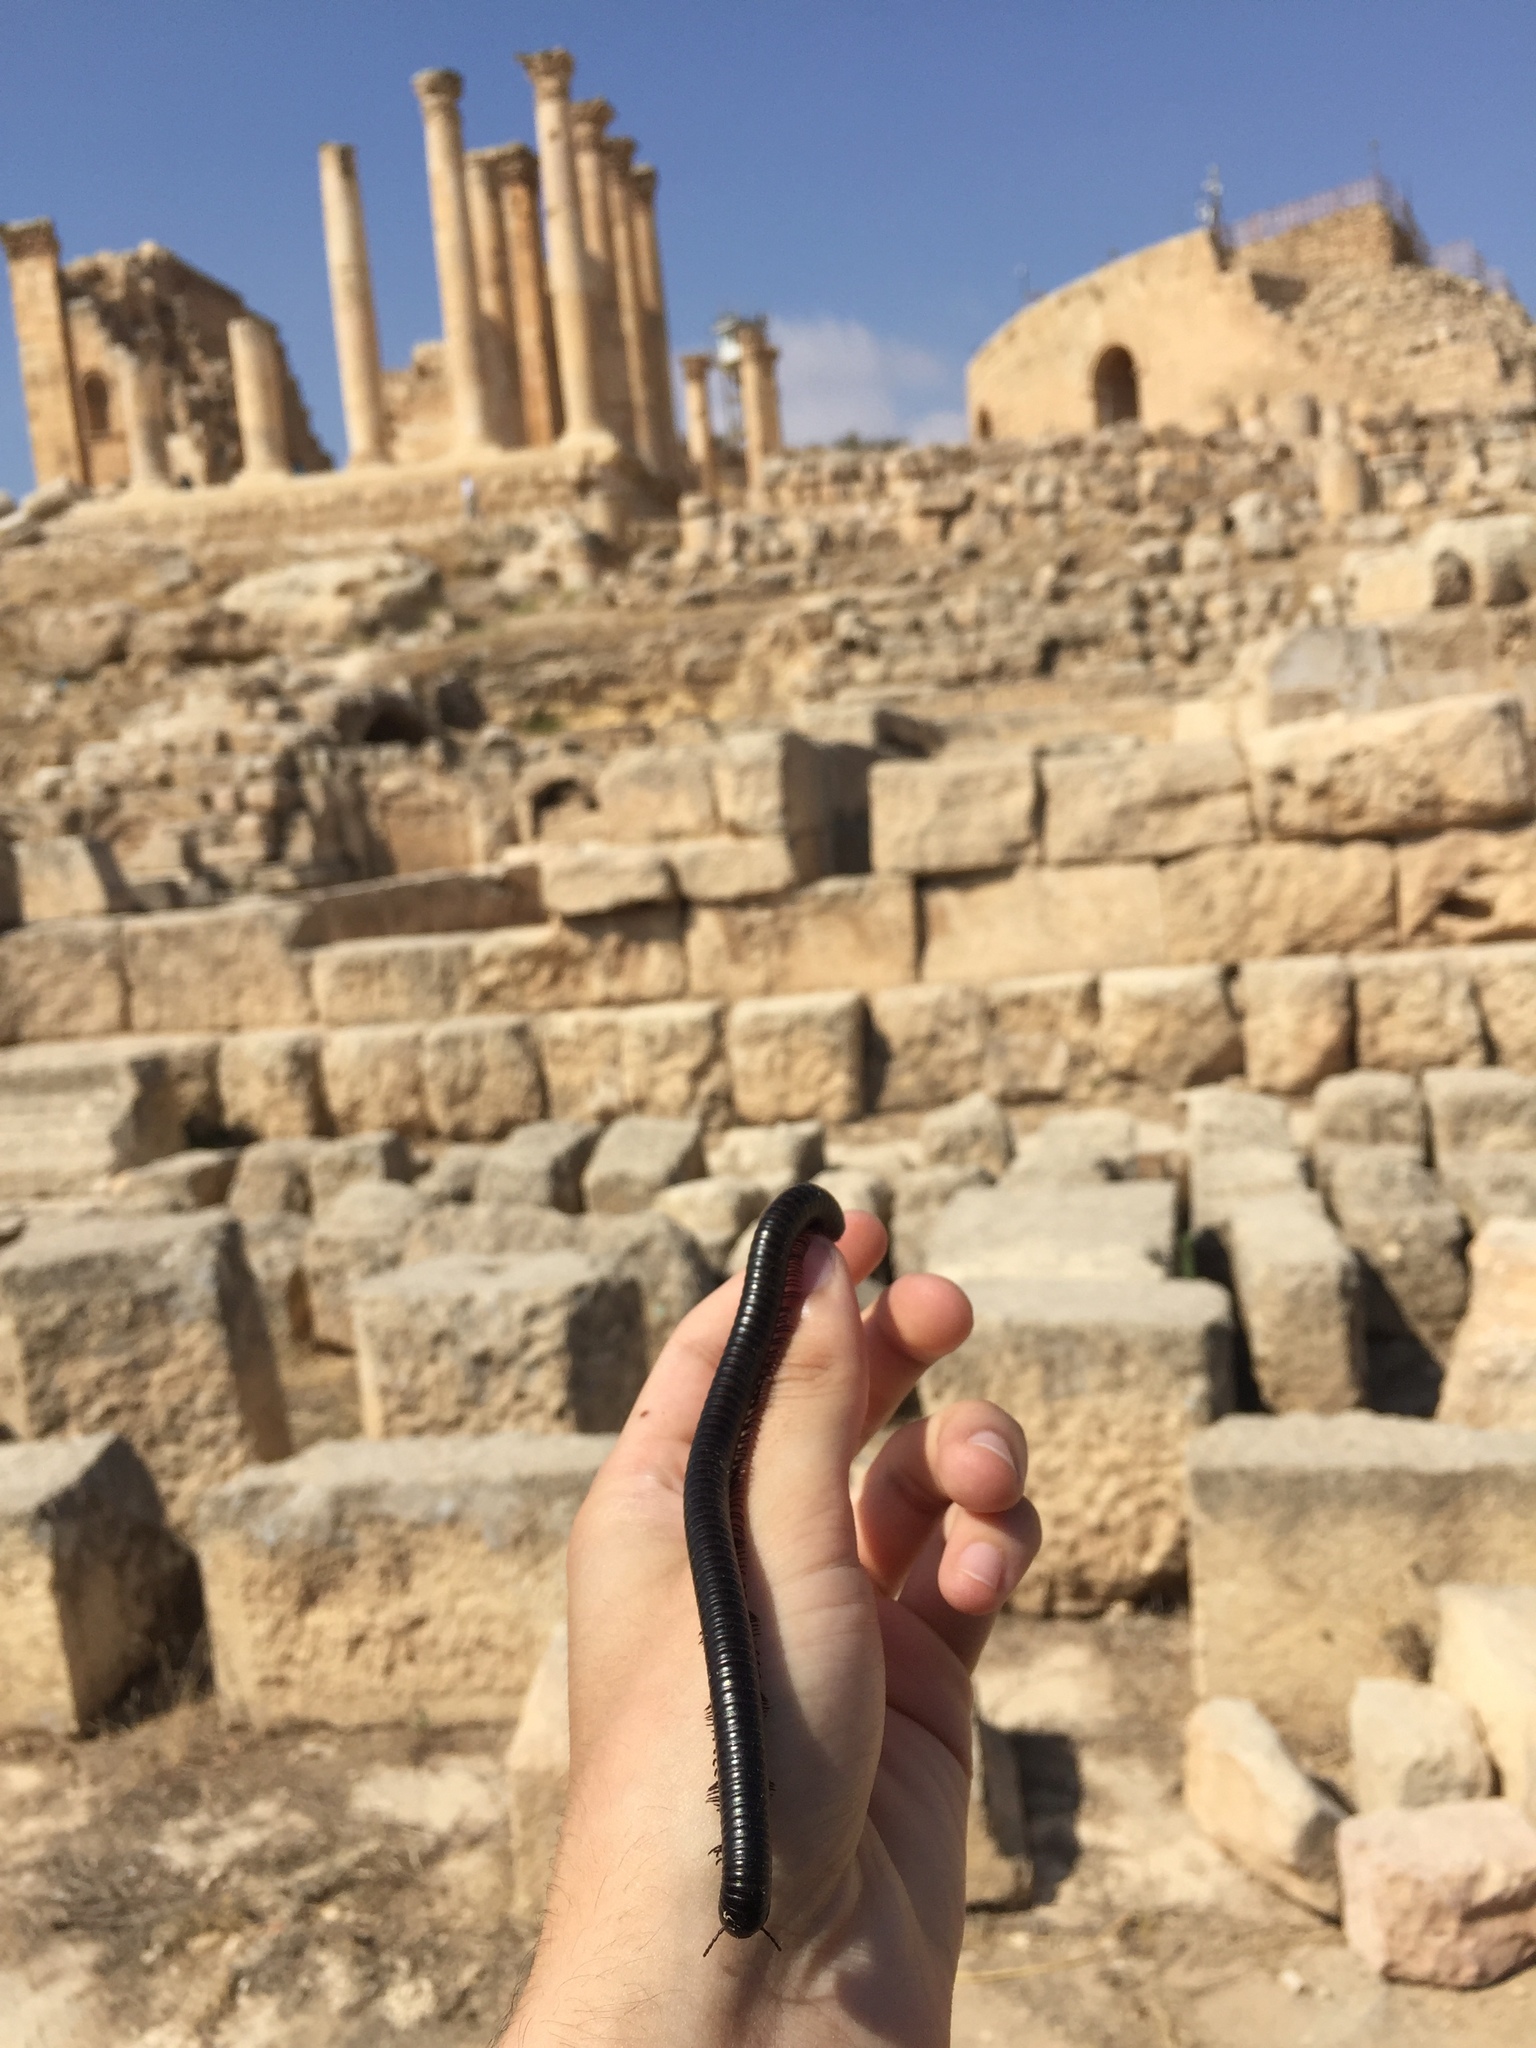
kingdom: Animalia
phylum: Arthropoda
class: Diplopoda
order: Spirostreptida
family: Spirostreptidae
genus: Archispirostreptus
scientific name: Archispirostreptus syriacus
